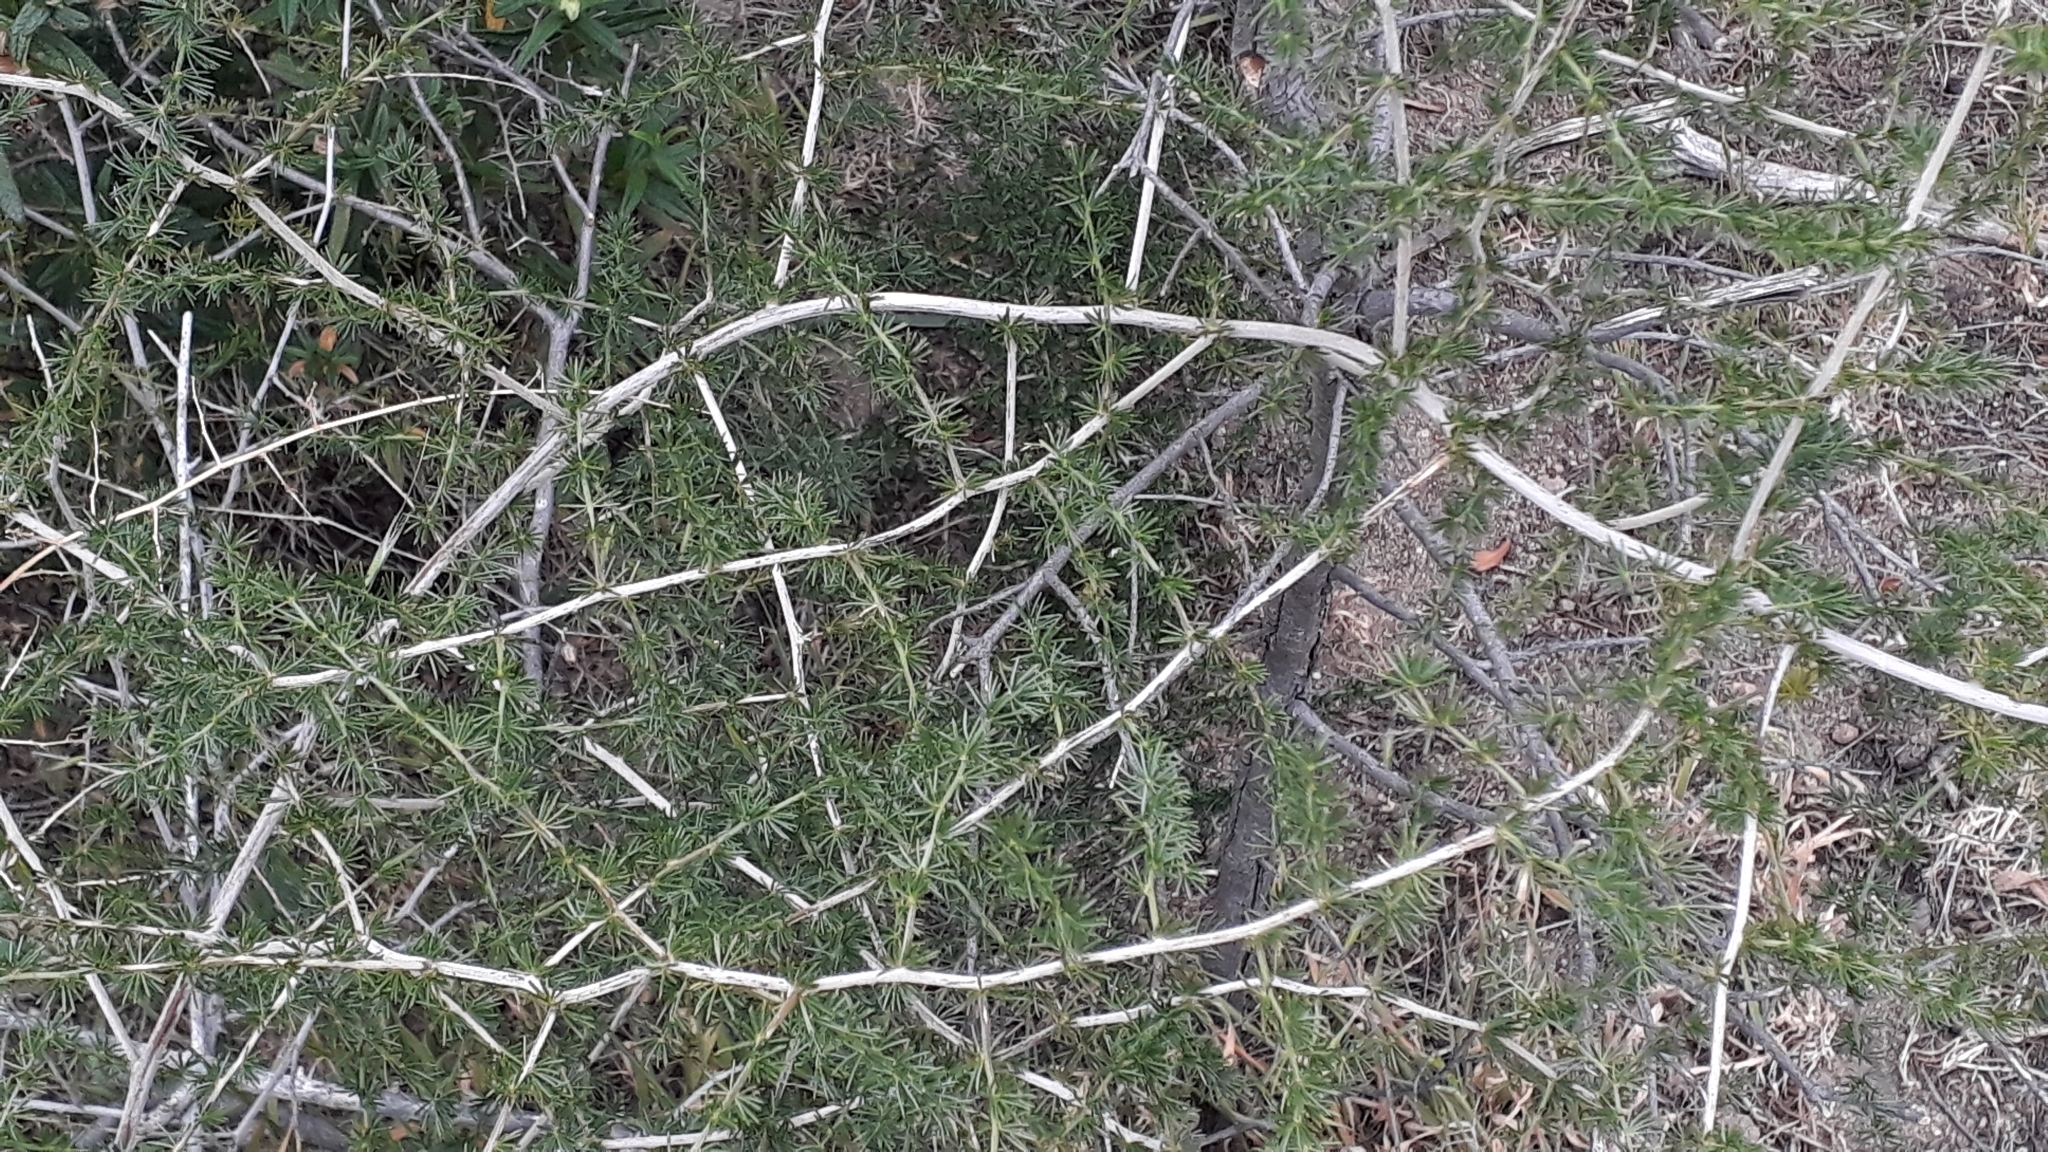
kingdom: Plantae
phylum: Tracheophyta
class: Liliopsida
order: Asparagales
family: Asparagaceae
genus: Asparagus
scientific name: Asparagus acutifolius
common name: Wild asparagus
